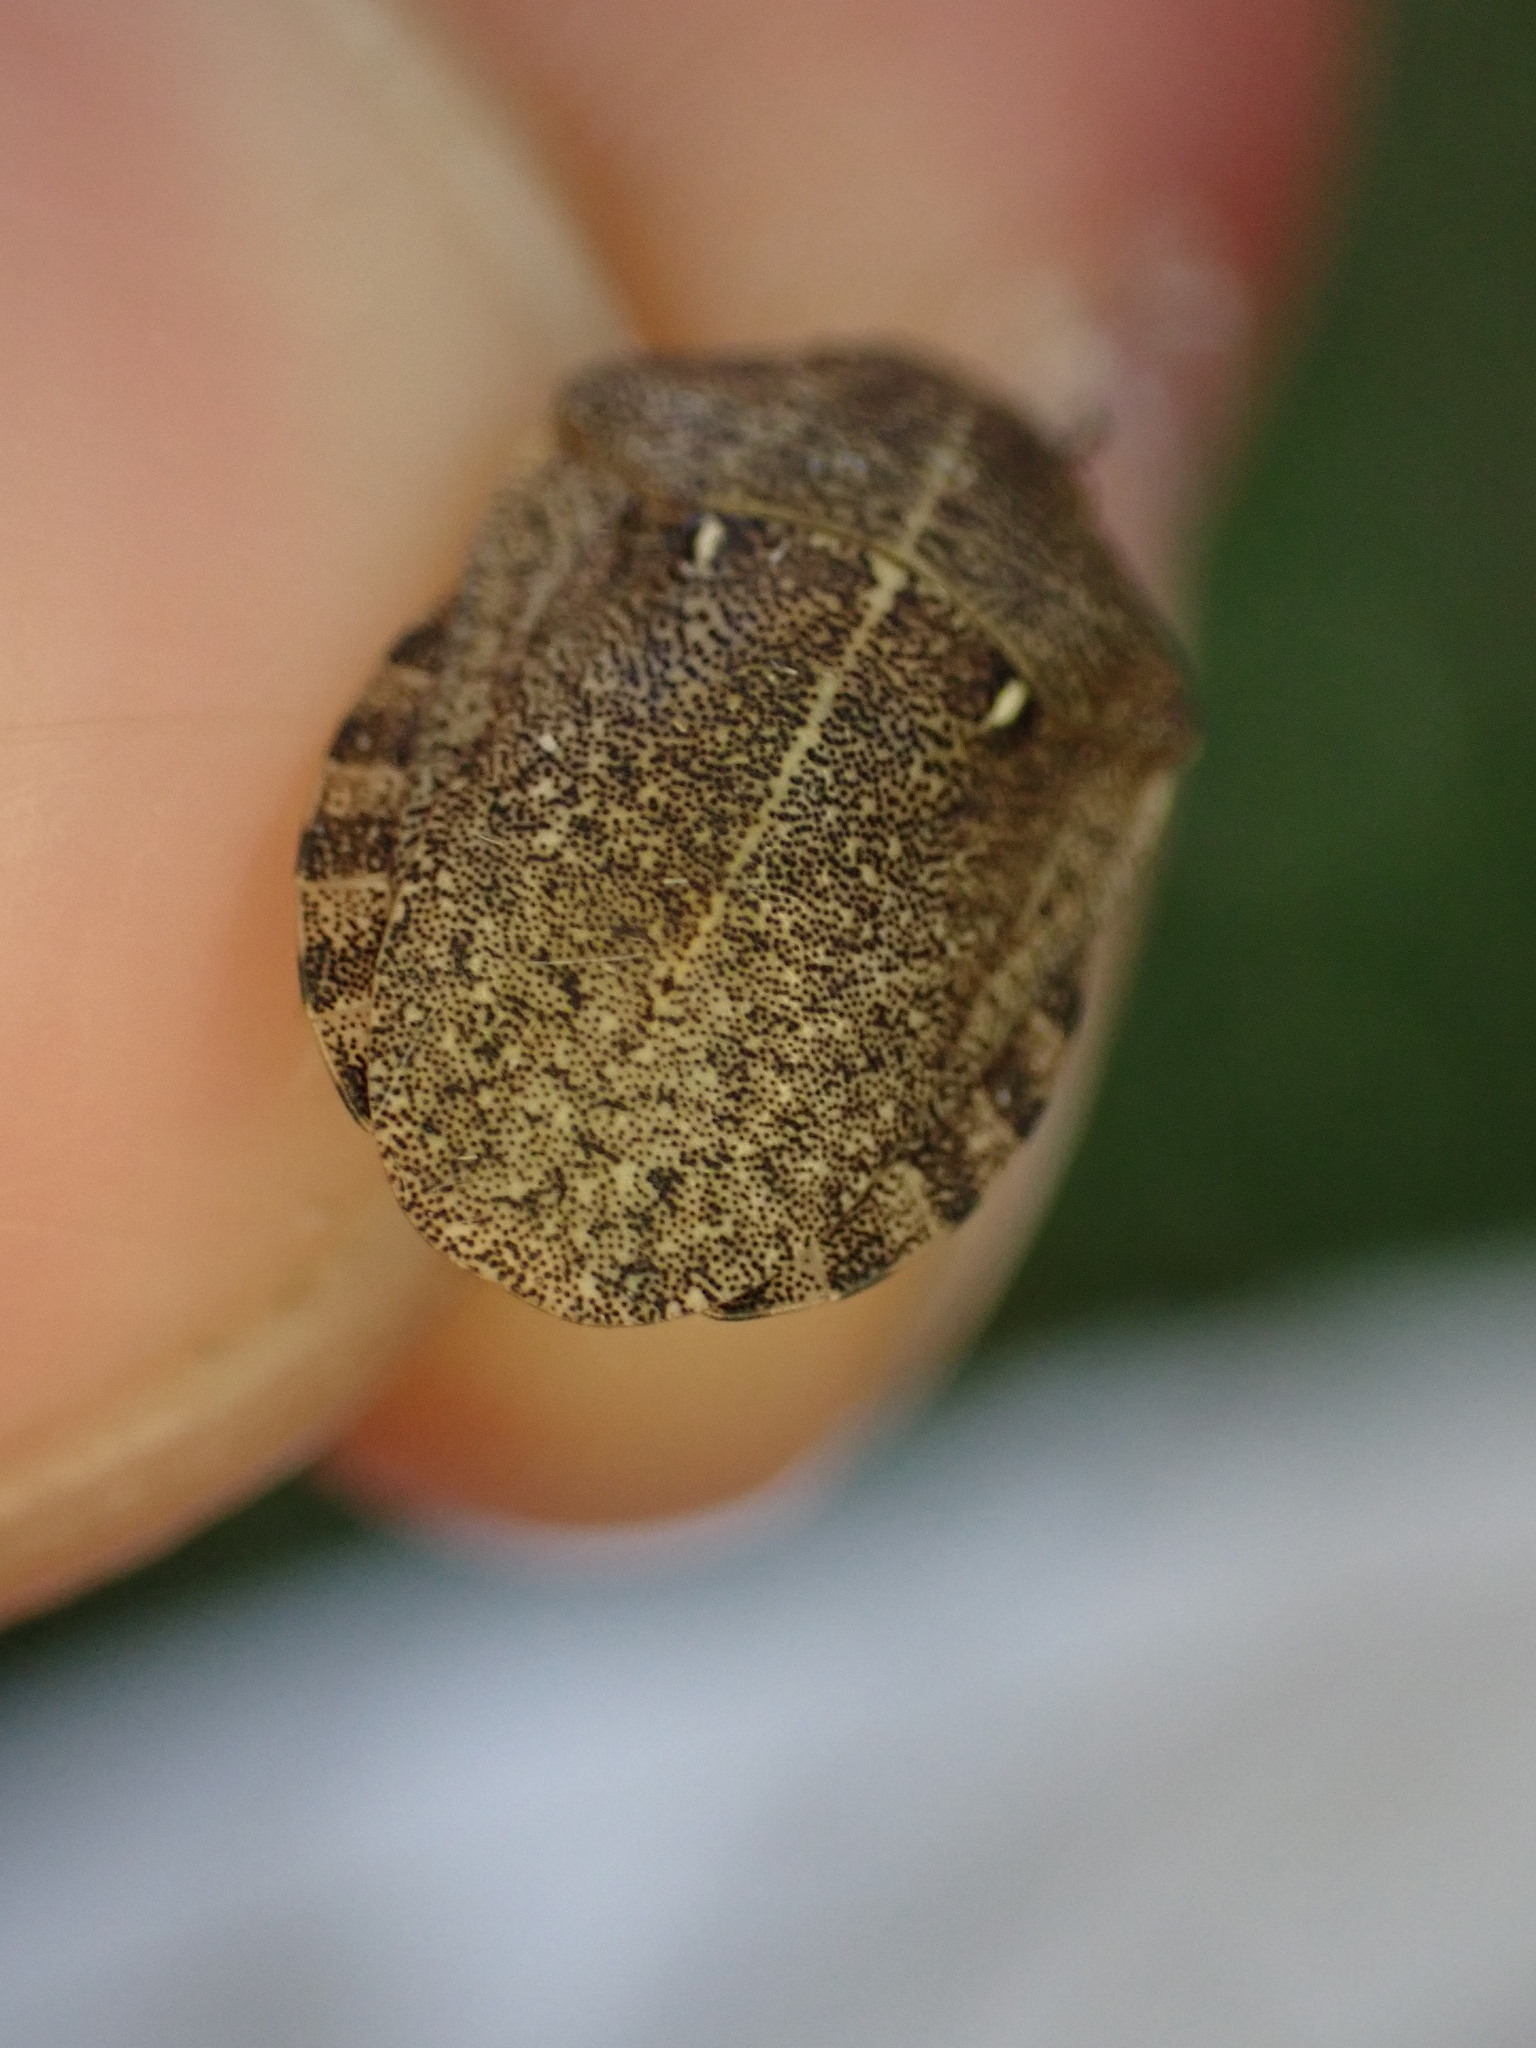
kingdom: Animalia
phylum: Arthropoda
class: Insecta
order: Hemiptera
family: Scutelleridae
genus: Eurygaster
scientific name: Eurygaster testudinaria
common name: Tortoise bug
